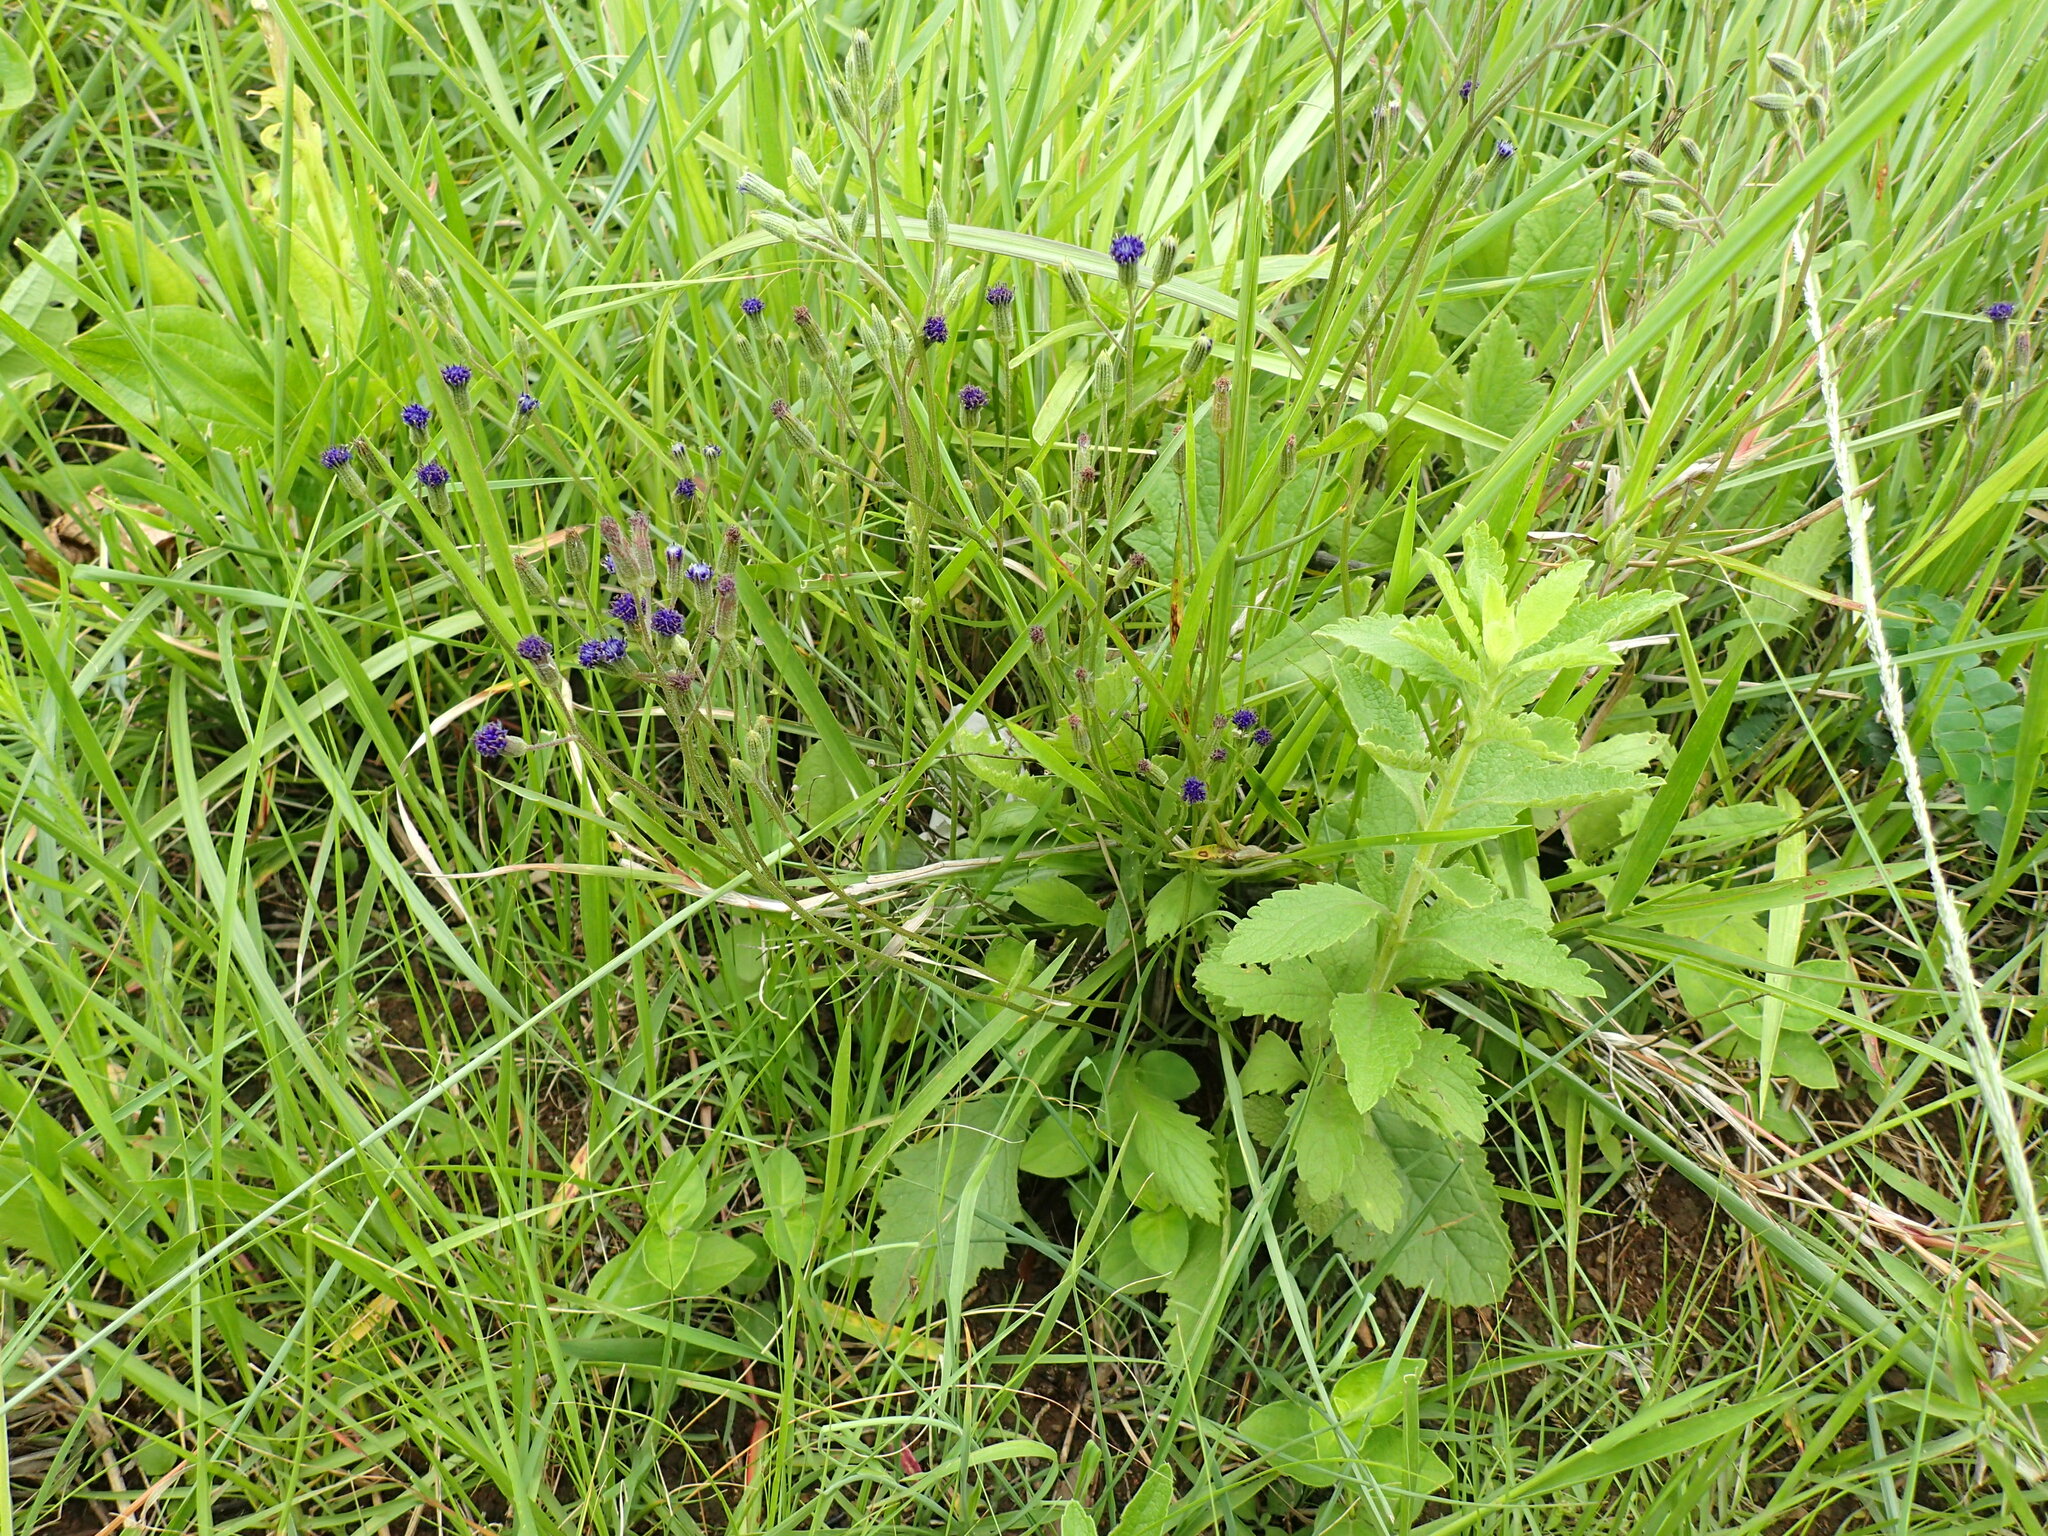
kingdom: Plantae
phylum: Tracheophyta
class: Magnoliopsida
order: Asterales
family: Asteraceae
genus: Senecio
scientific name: Senecio umgeniensis
